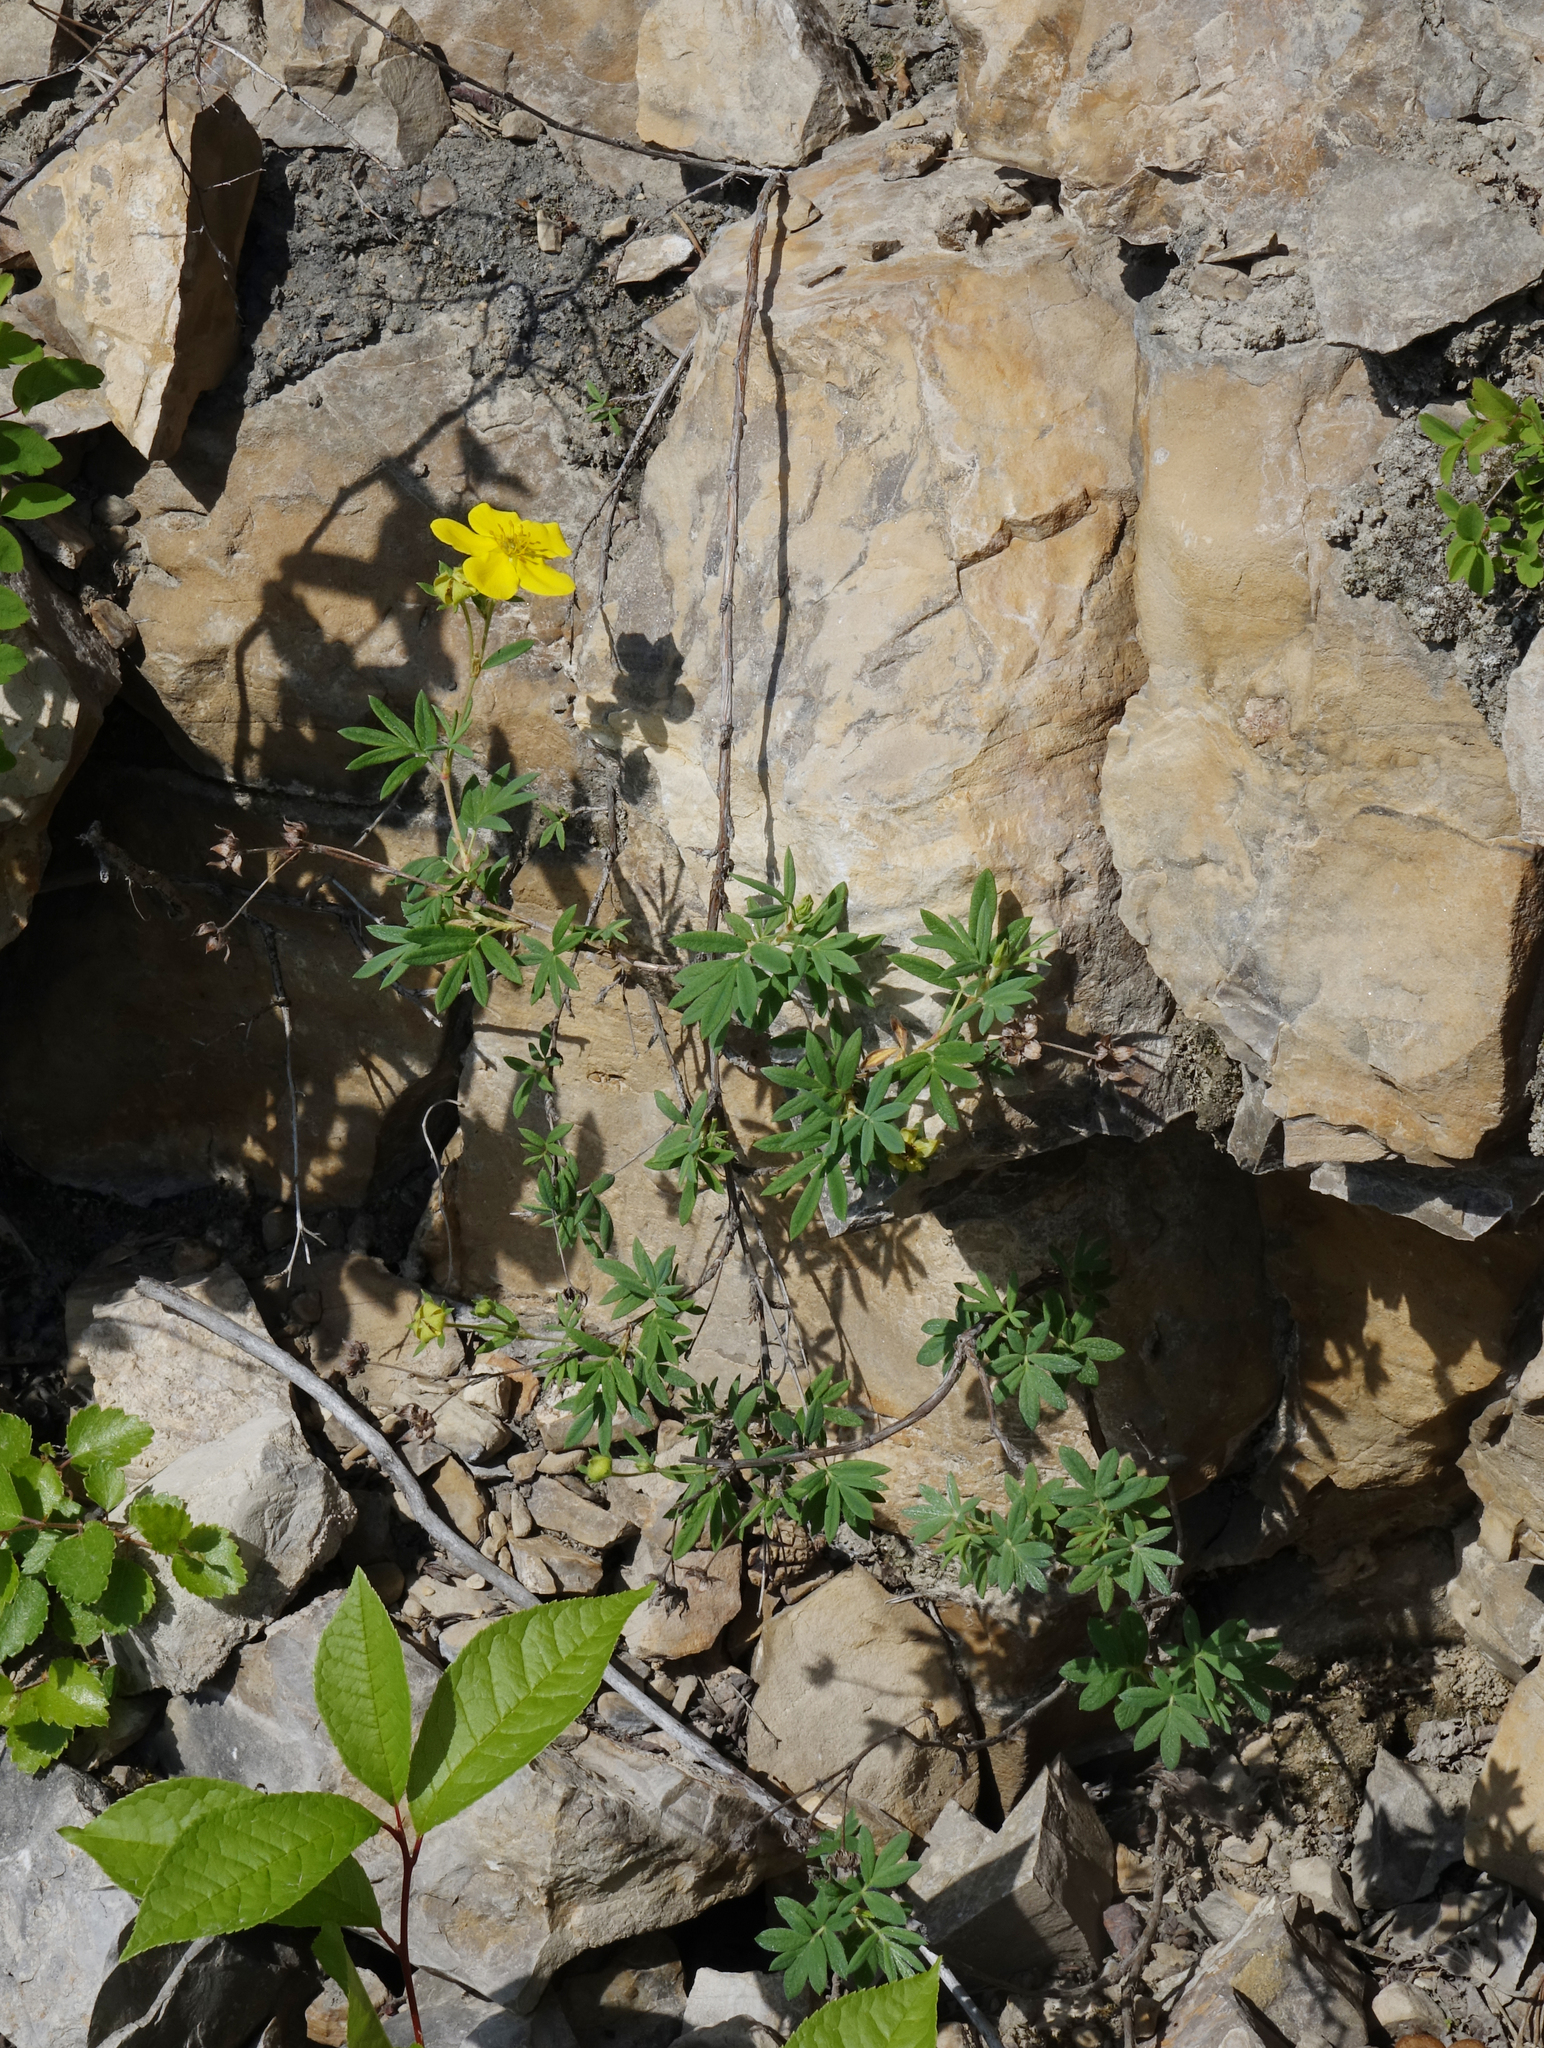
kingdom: Plantae
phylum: Tracheophyta
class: Magnoliopsida
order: Rosales
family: Rosaceae
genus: Dasiphora
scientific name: Dasiphora fruticosa
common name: Shrubby cinquefoil
